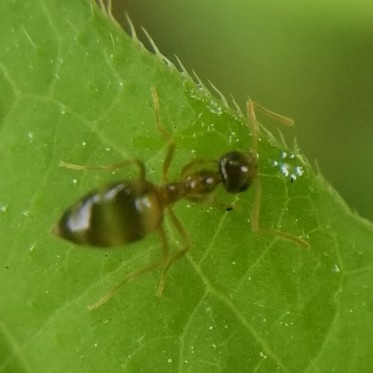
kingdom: Animalia
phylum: Arthropoda
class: Insecta
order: Hymenoptera
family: Formicidae
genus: Prenolepis
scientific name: Prenolepis imparis
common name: Small honey ant
